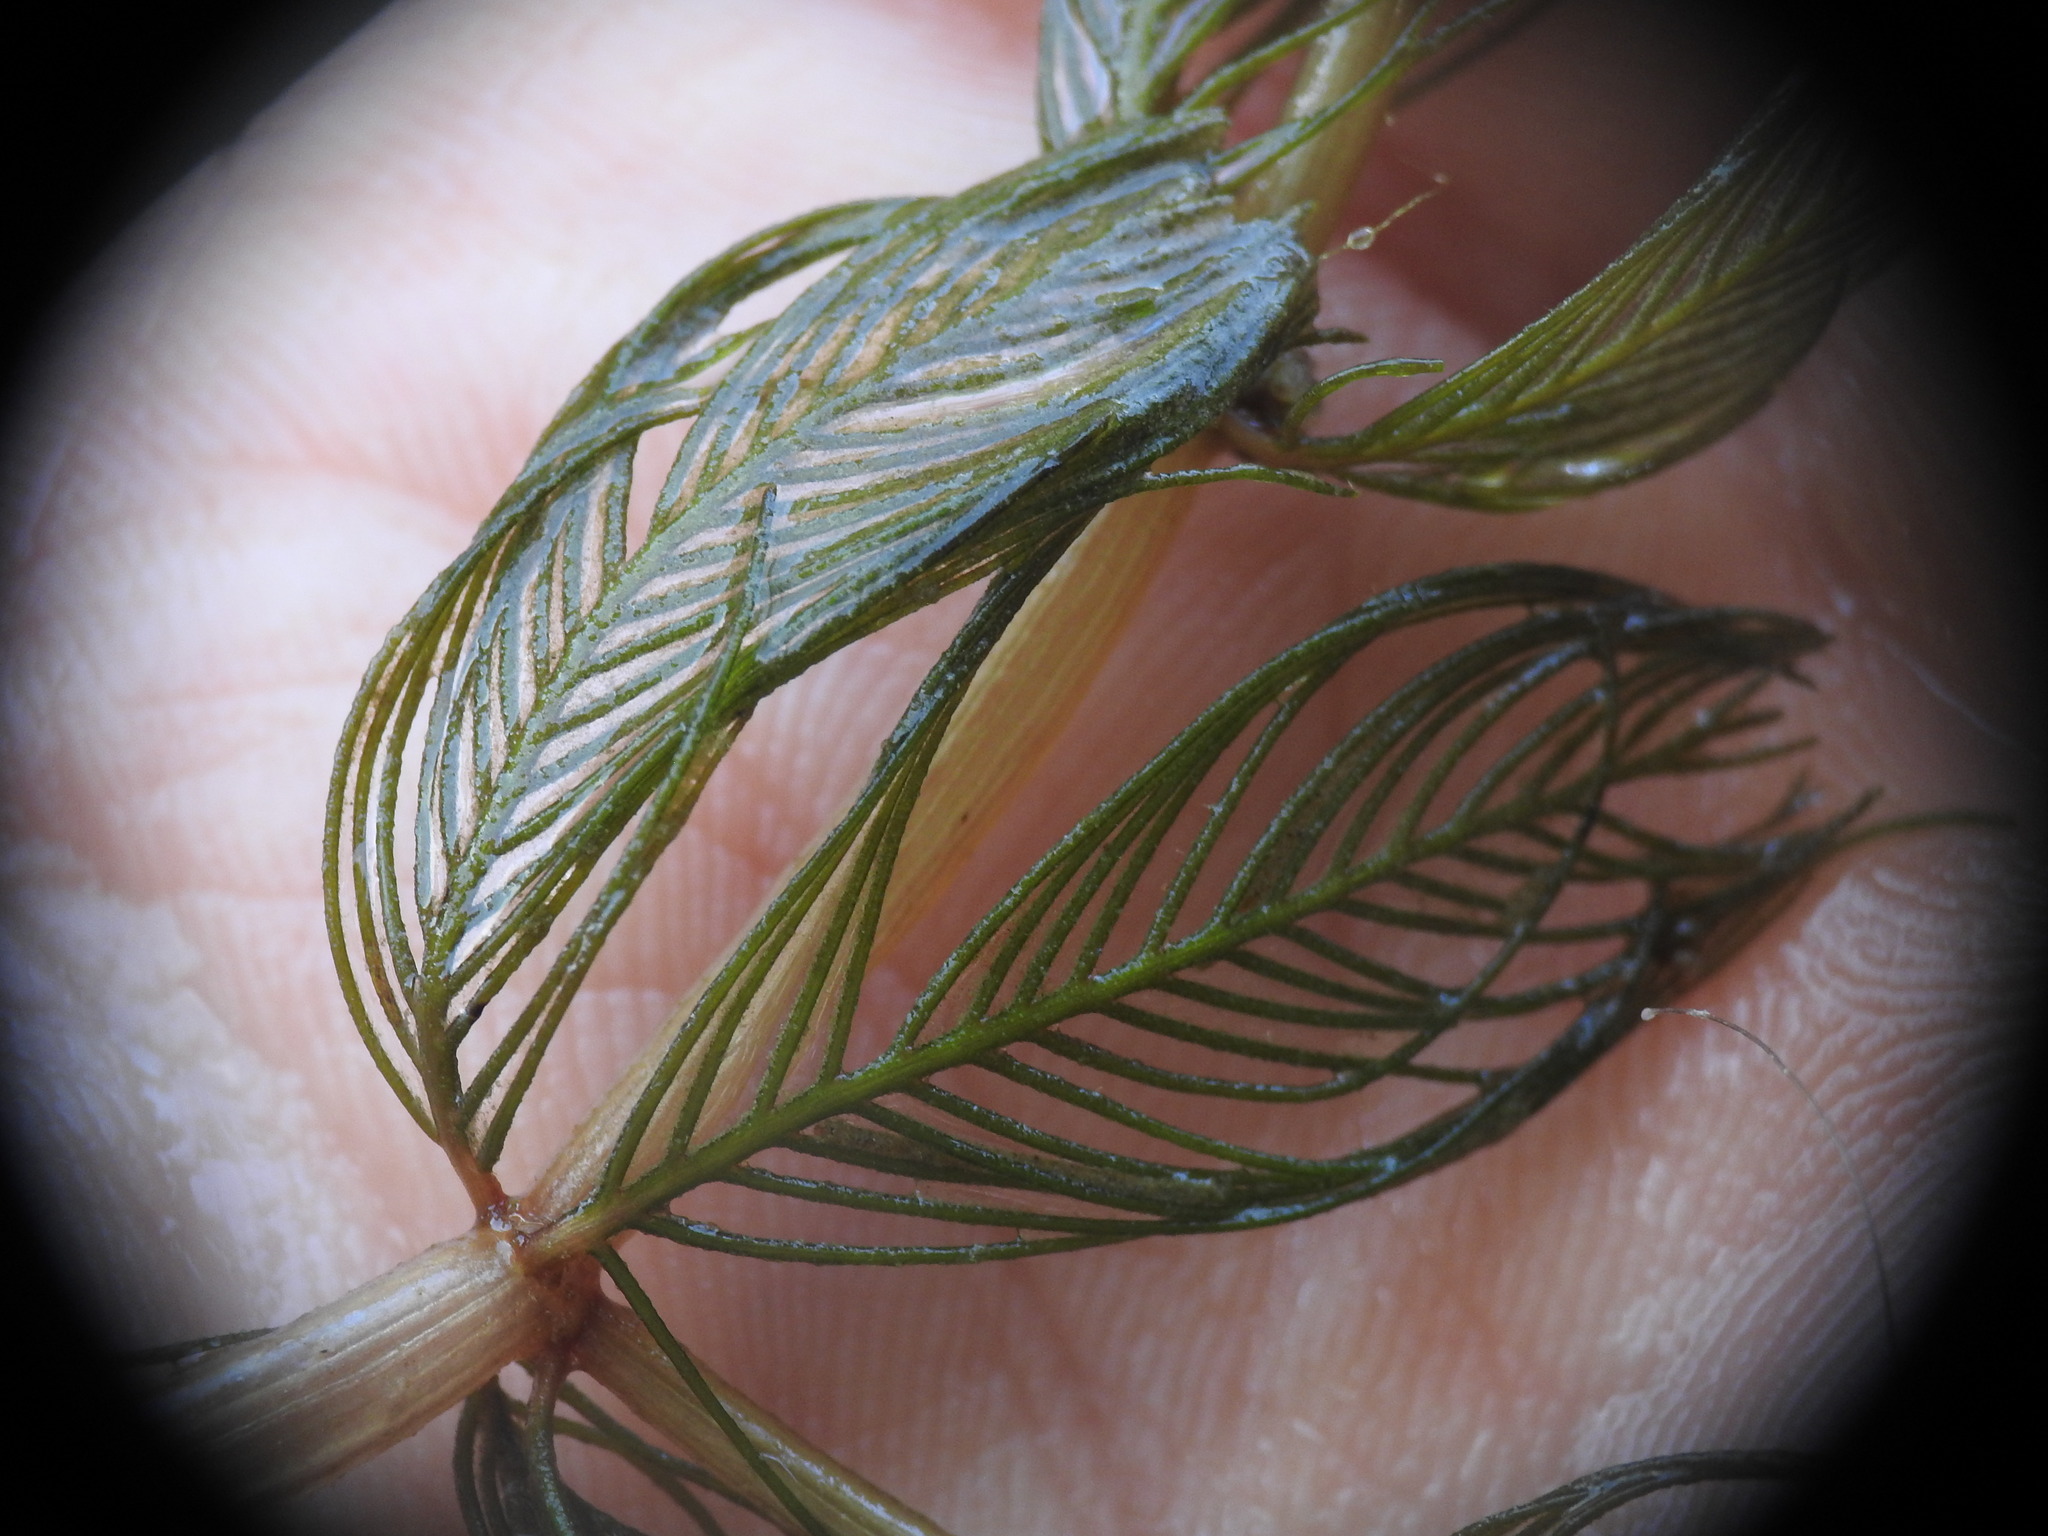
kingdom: Plantae
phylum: Tracheophyta
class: Magnoliopsida
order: Saxifragales
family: Haloragaceae
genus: Myriophyllum
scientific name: Myriophyllum spicatum
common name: Spiked water-milfoil
